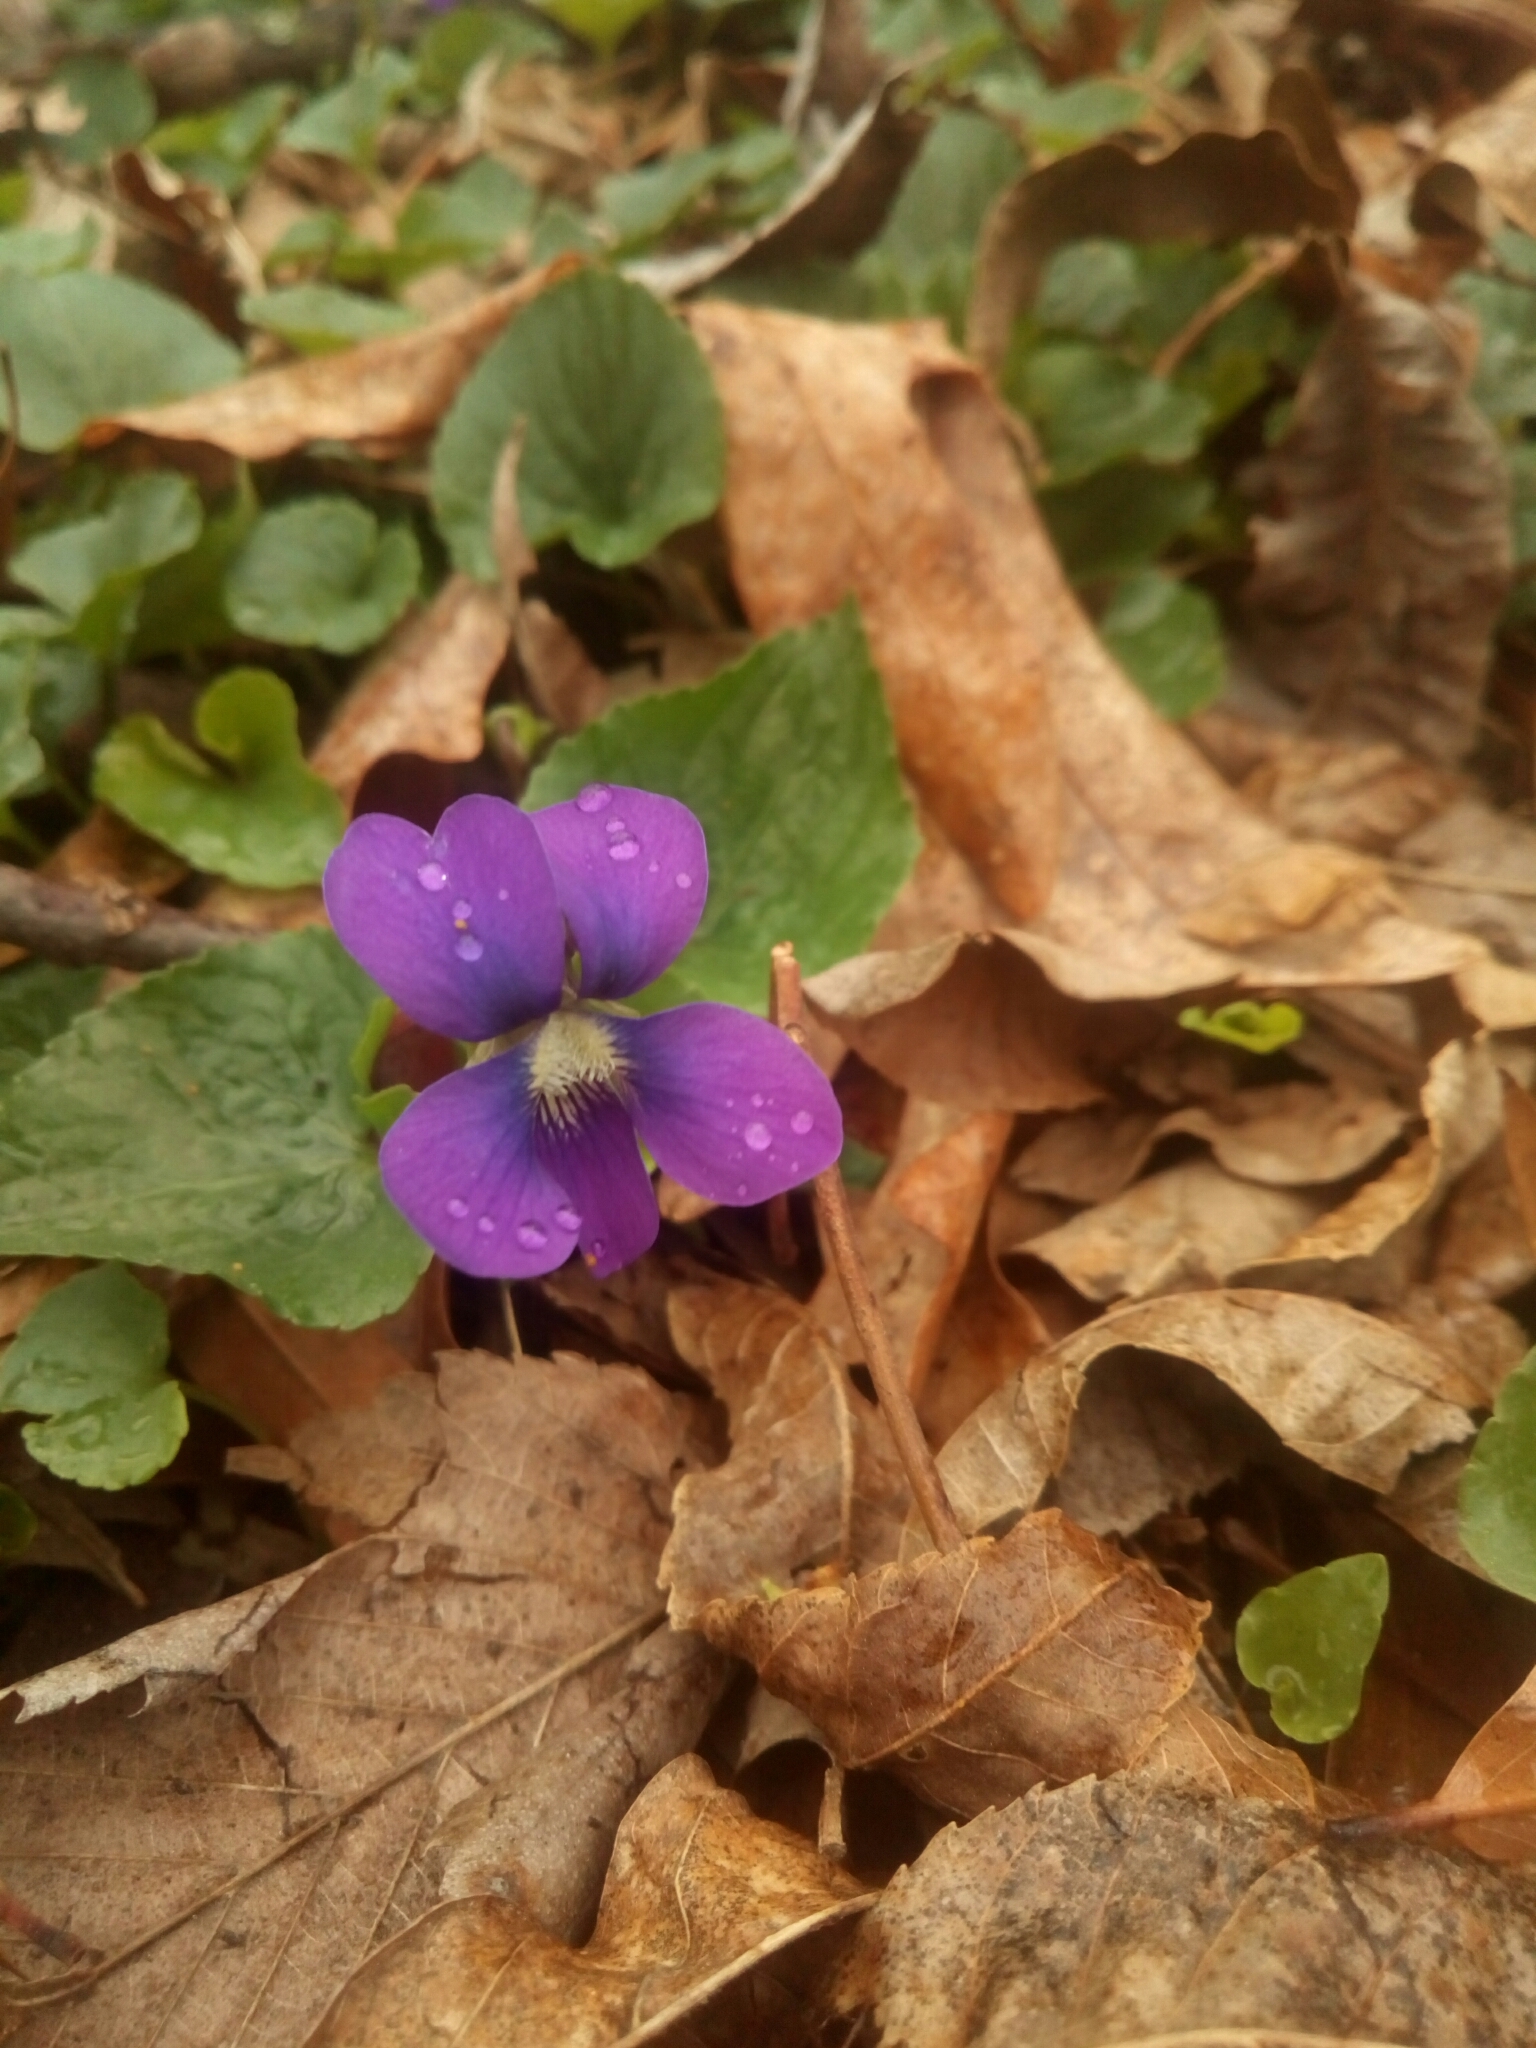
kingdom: Plantae
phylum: Tracheophyta
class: Magnoliopsida
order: Malpighiales
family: Violaceae
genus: Viola
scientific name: Viola sororia
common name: Dooryard violet
